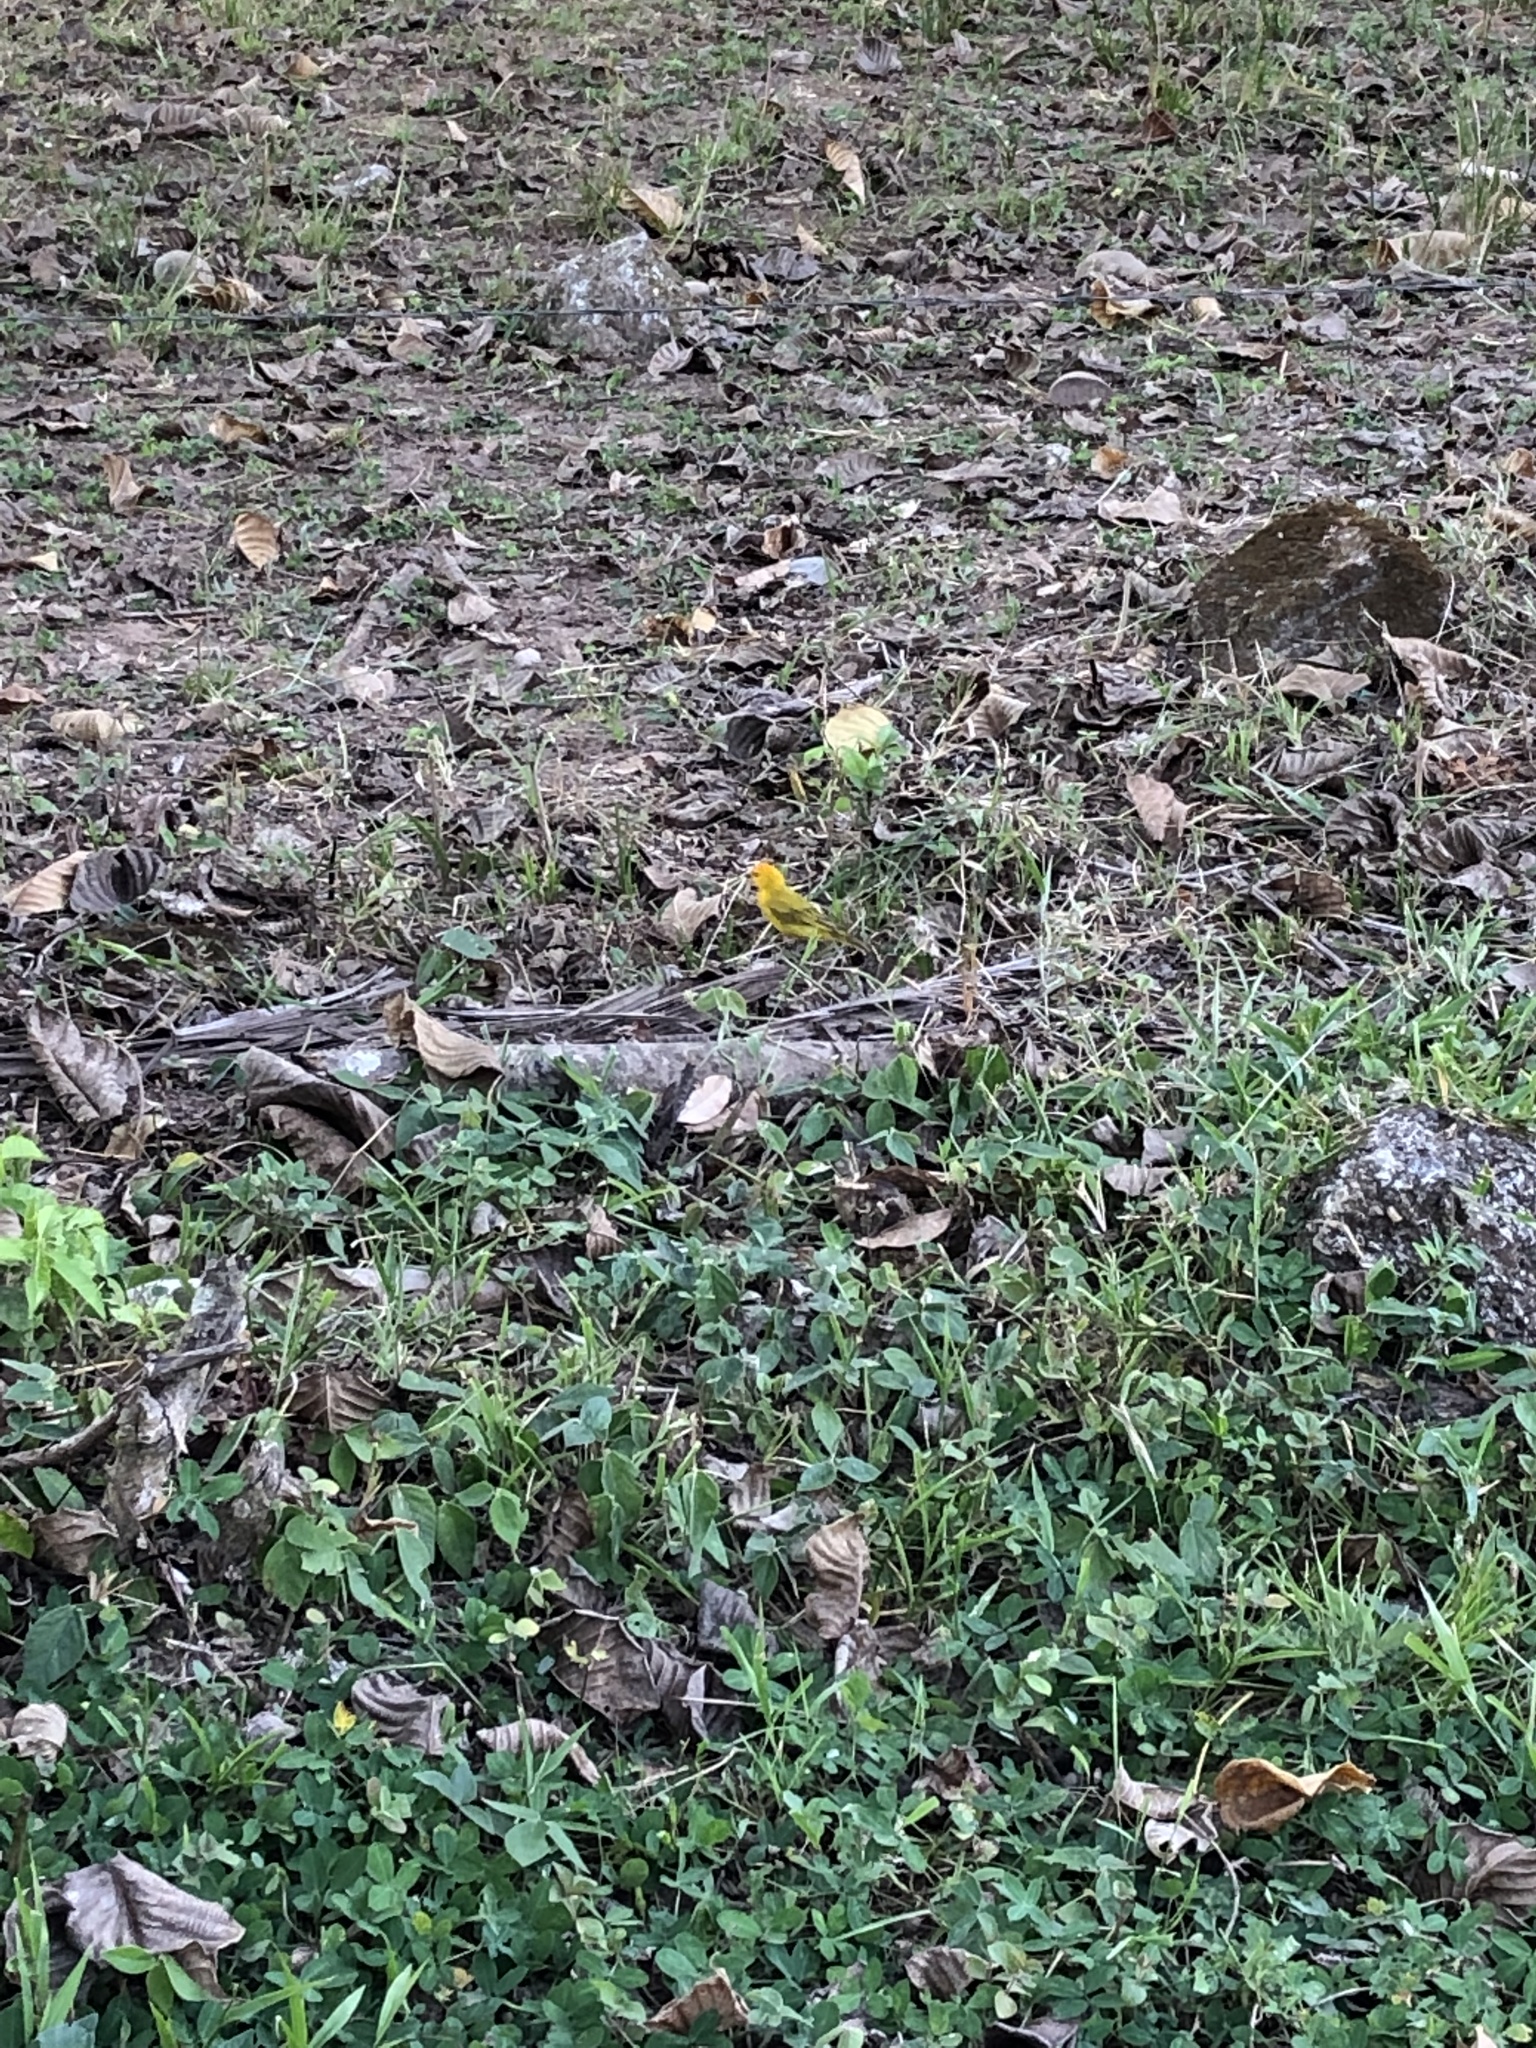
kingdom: Animalia
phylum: Chordata
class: Aves
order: Passeriformes
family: Thraupidae
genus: Sicalis
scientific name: Sicalis flaveola
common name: Saffron finch
